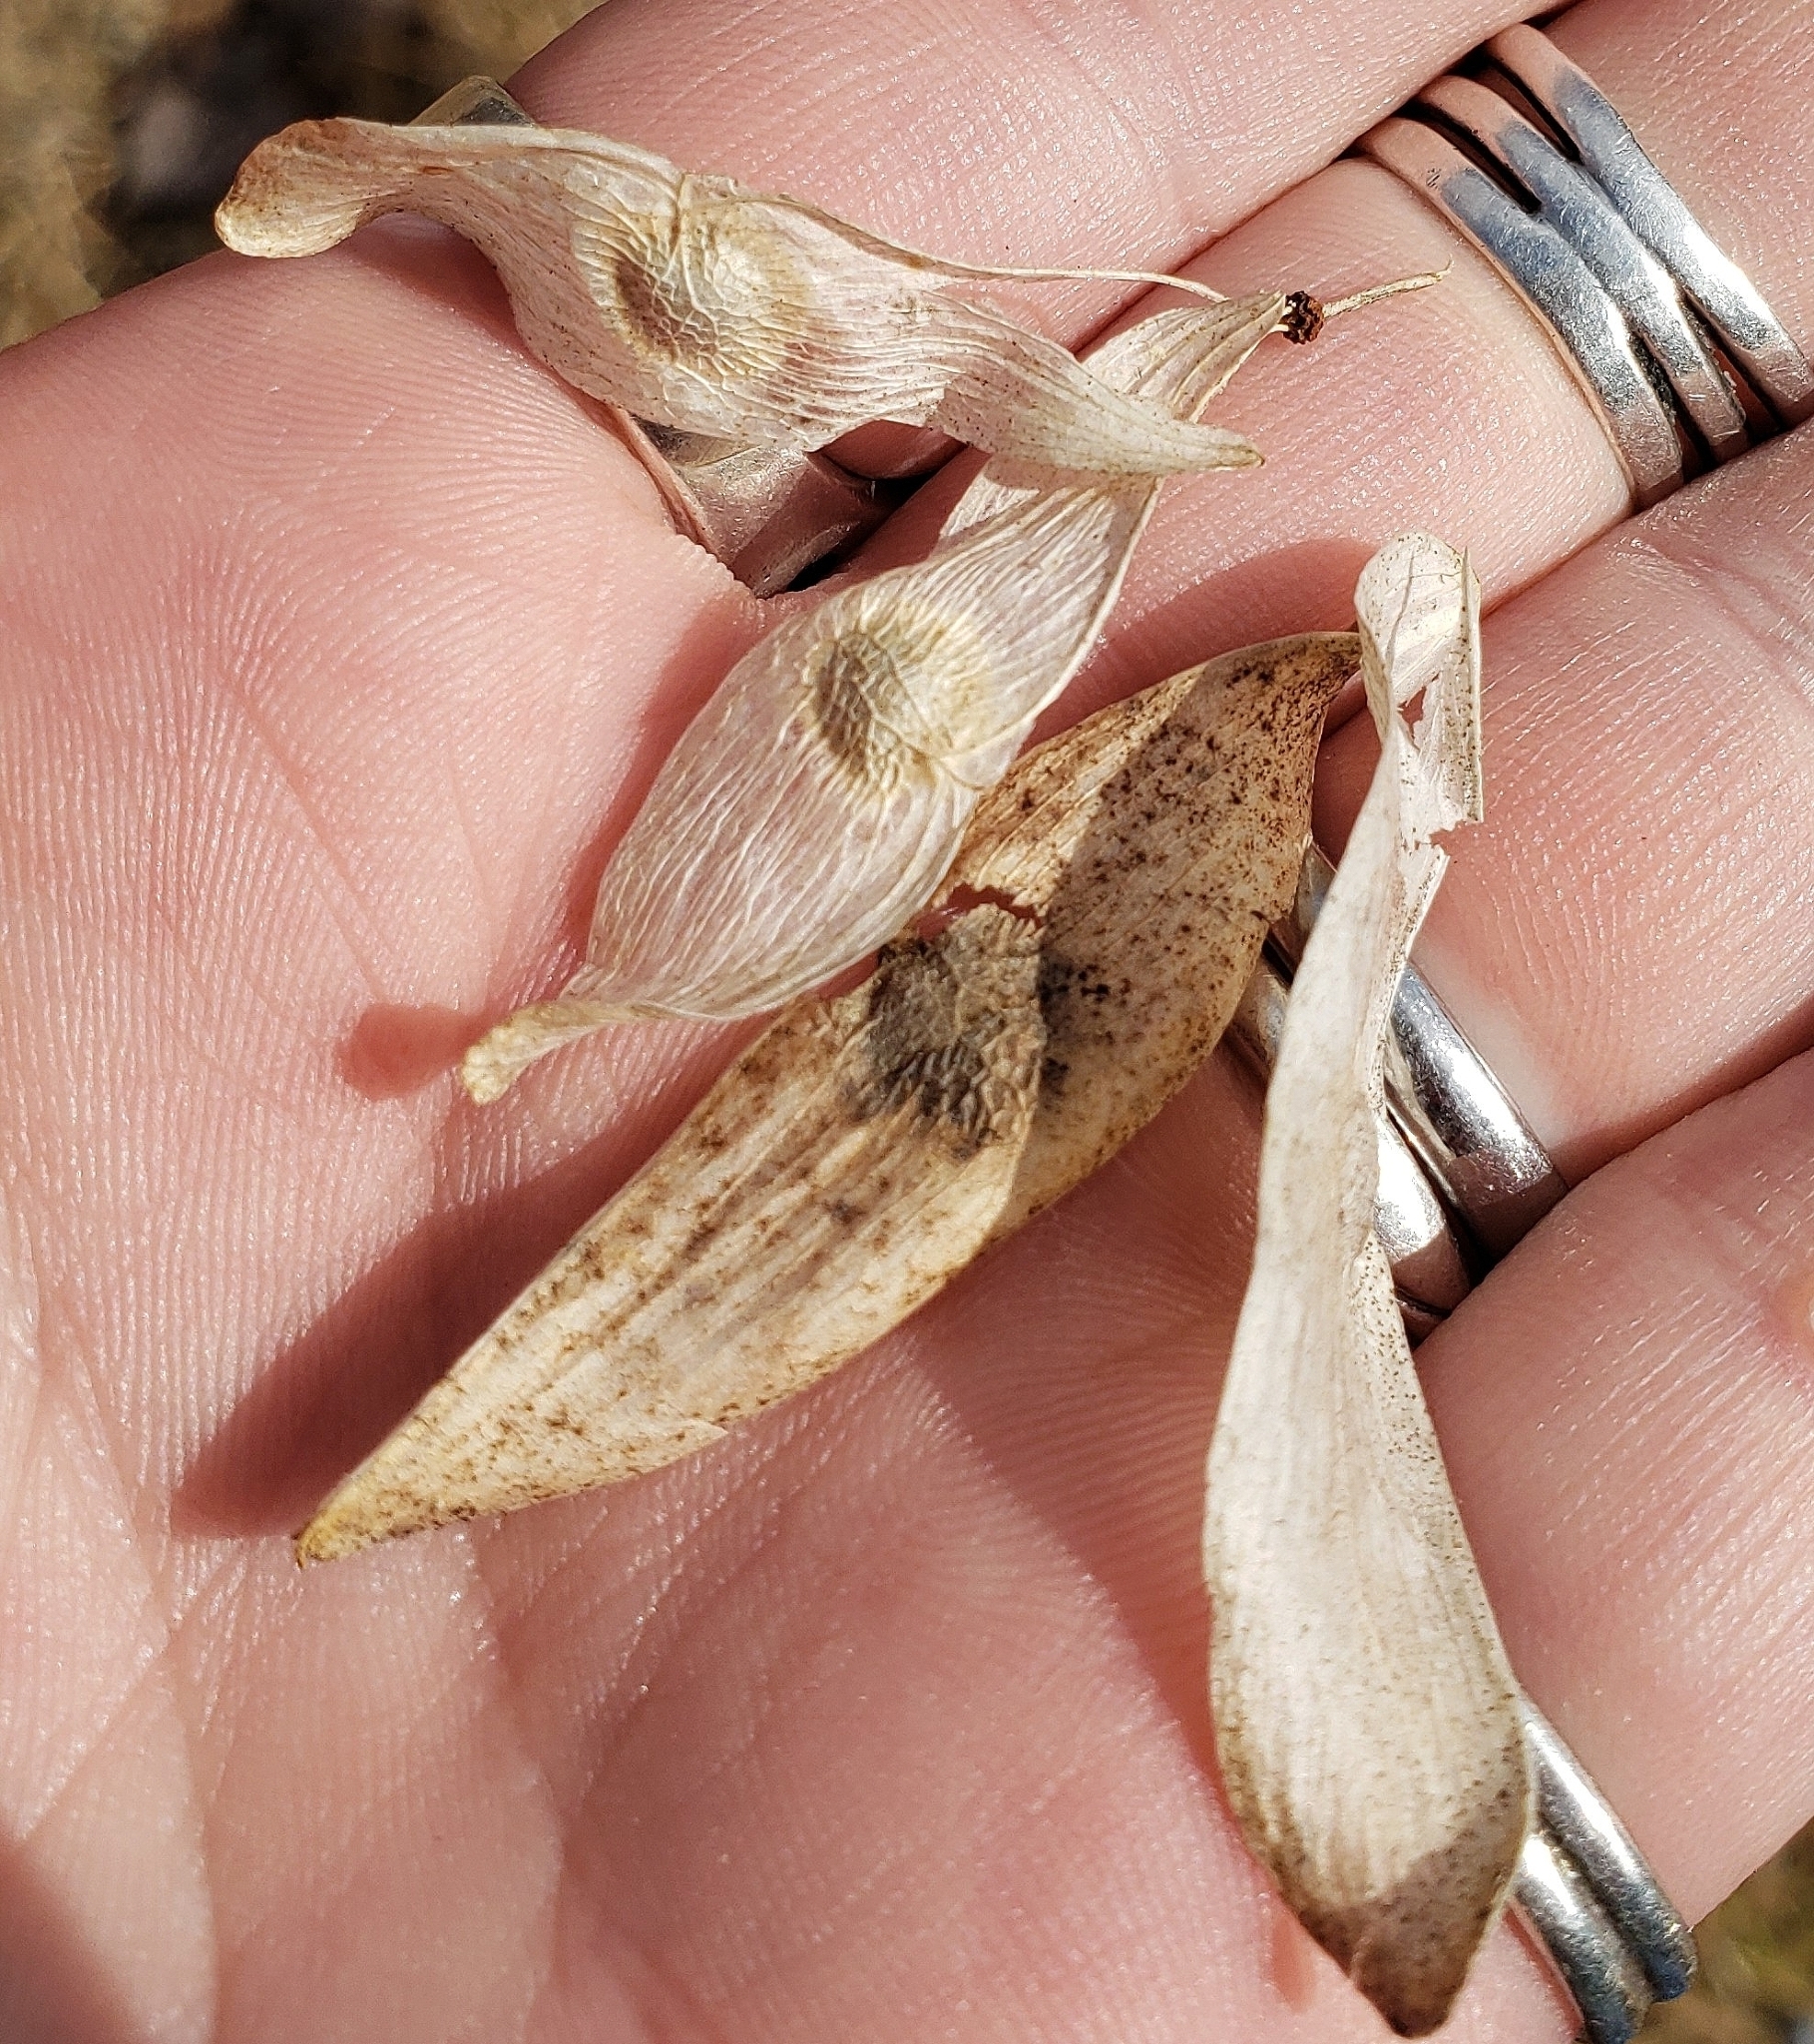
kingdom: Plantae
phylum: Tracheophyta
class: Magnoliopsida
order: Sapindales
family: Simaroubaceae
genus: Ailanthus
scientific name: Ailanthus altissima
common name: Tree-of-heaven
